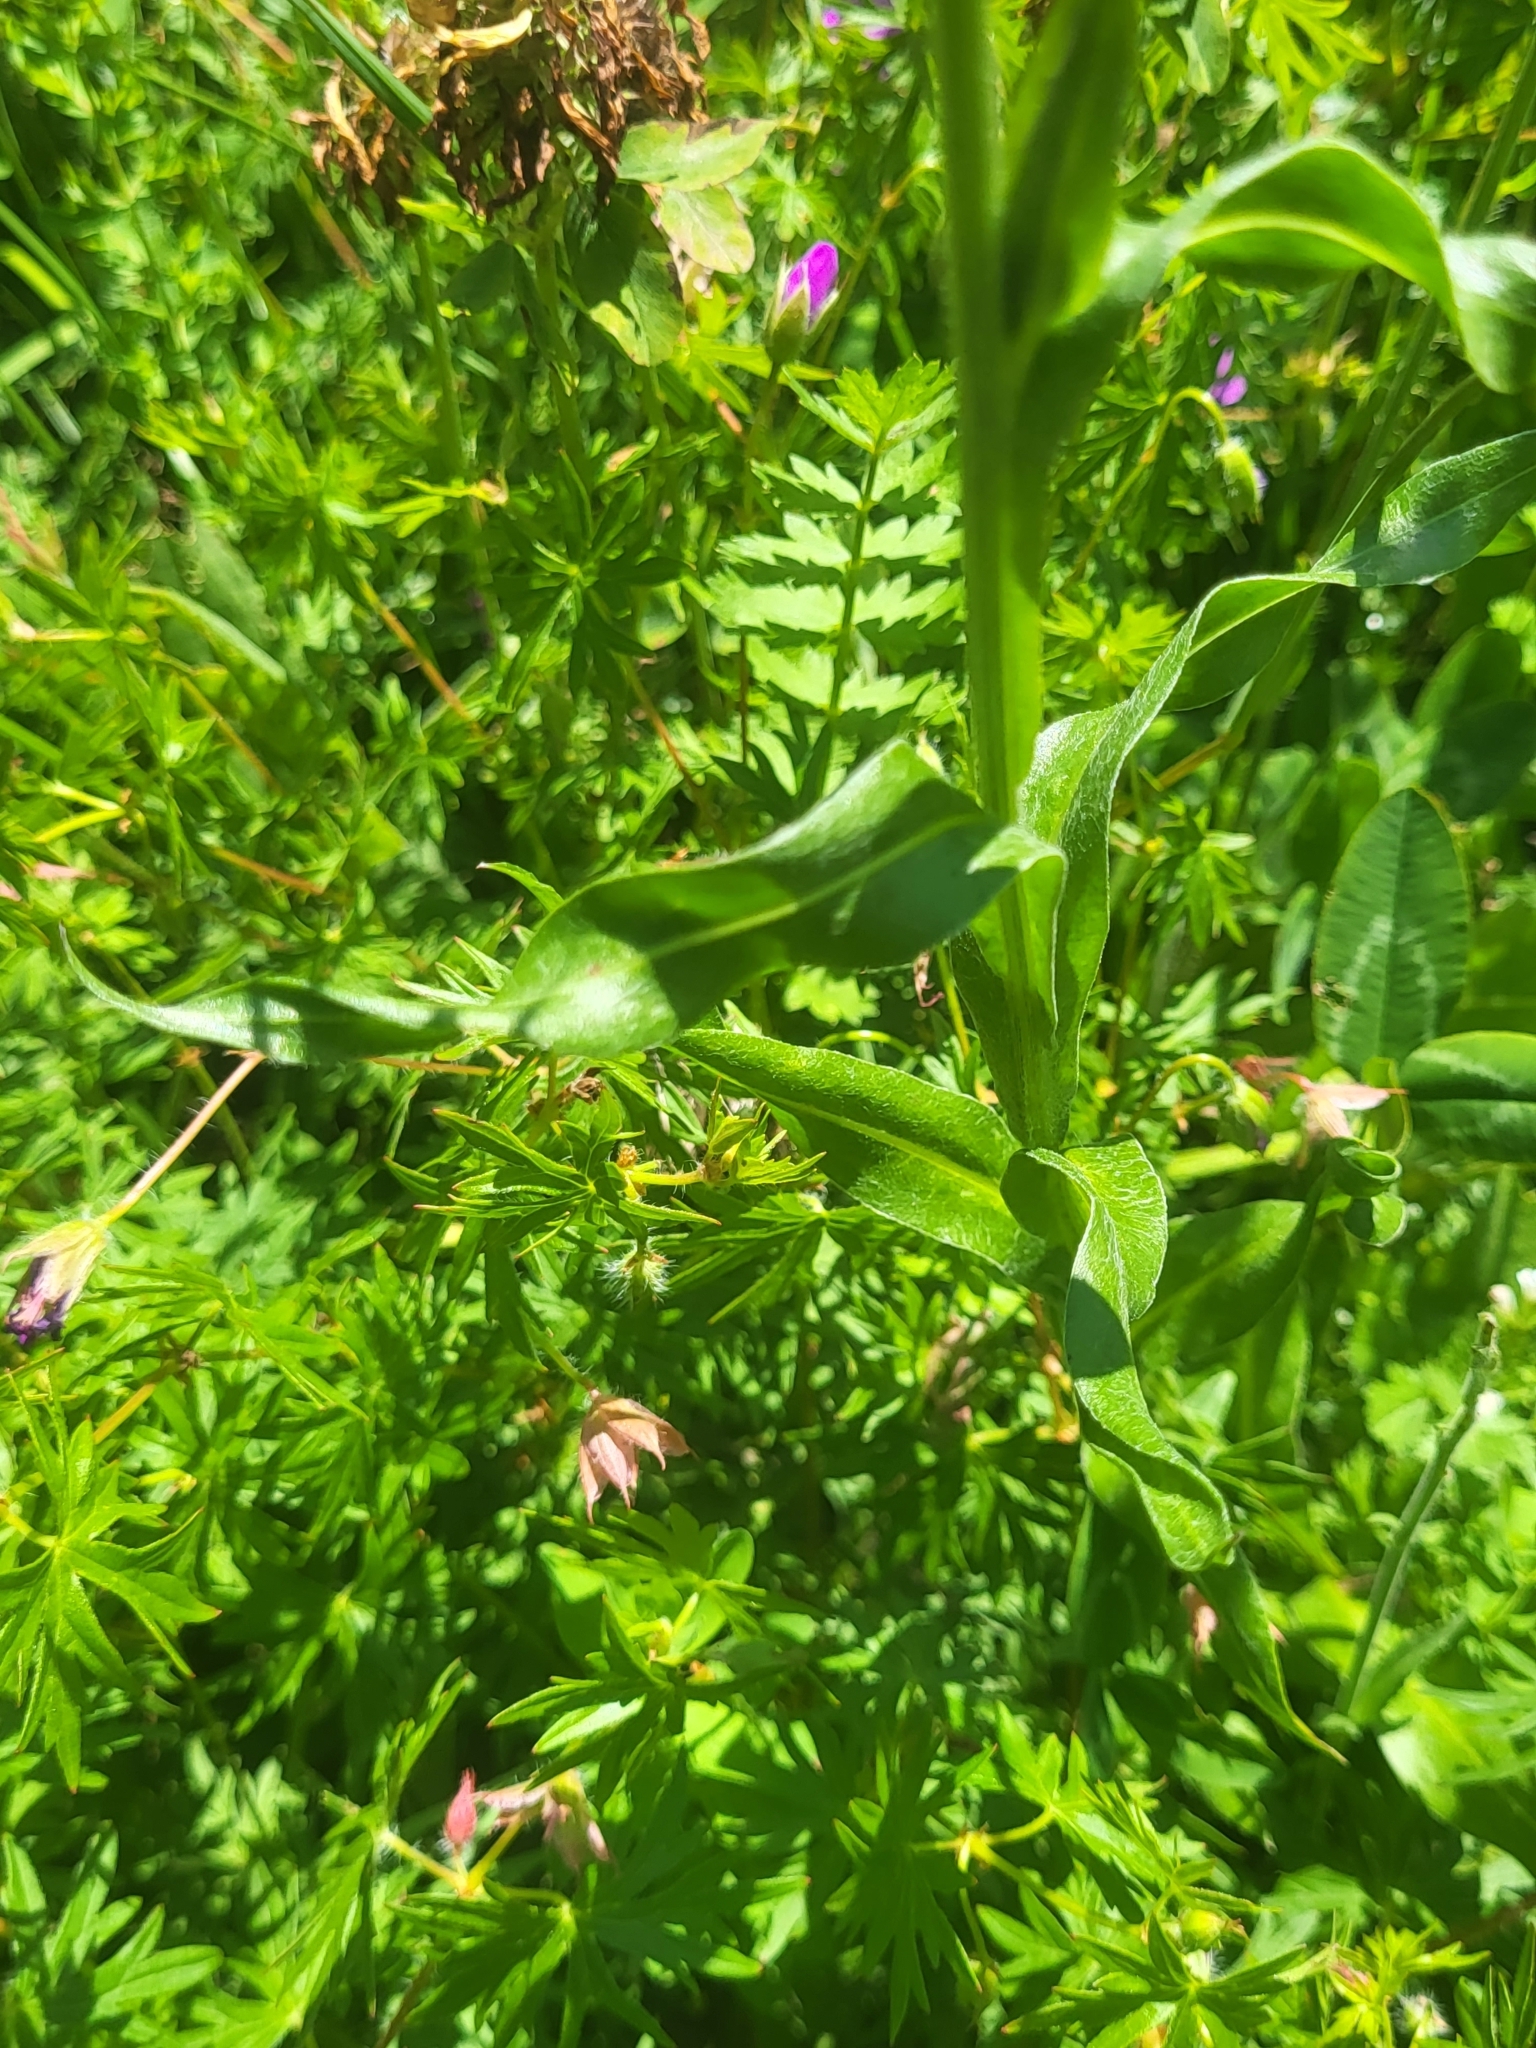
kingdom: Plantae
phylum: Tracheophyta
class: Magnoliopsida
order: Asterales
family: Asteraceae
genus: Centaurea
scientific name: Centaurea cheiranthifolia
